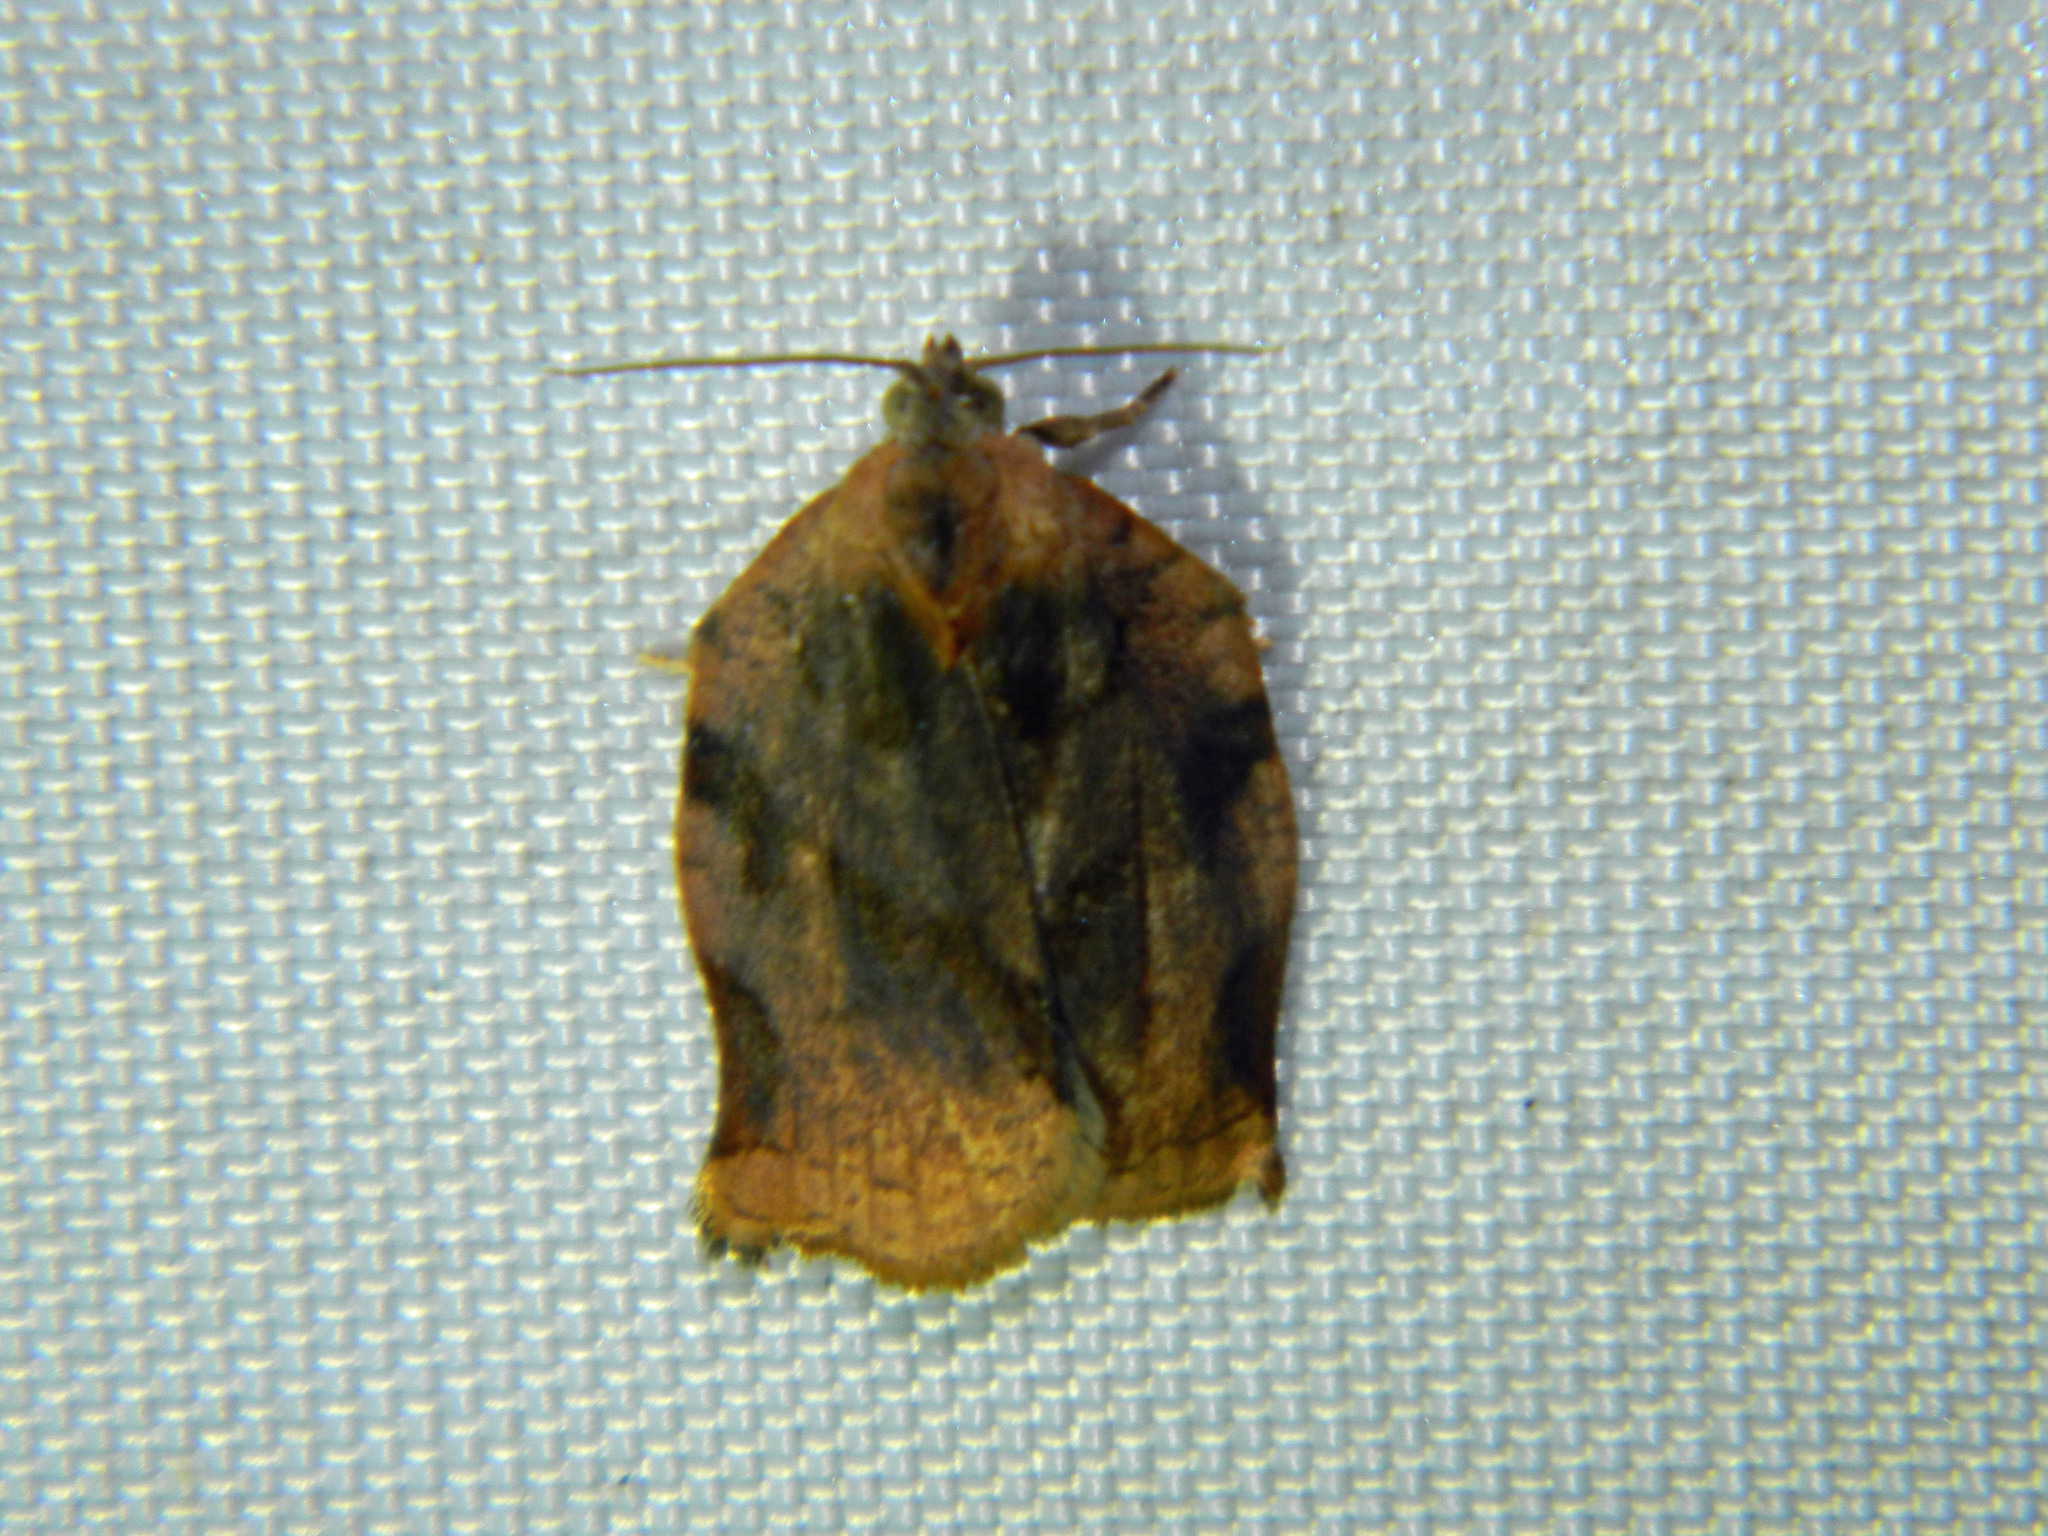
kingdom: Animalia
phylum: Arthropoda
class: Insecta
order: Lepidoptera
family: Tortricidae
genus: Archips
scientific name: Archips purpurana
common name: Omnivorous leafroller
